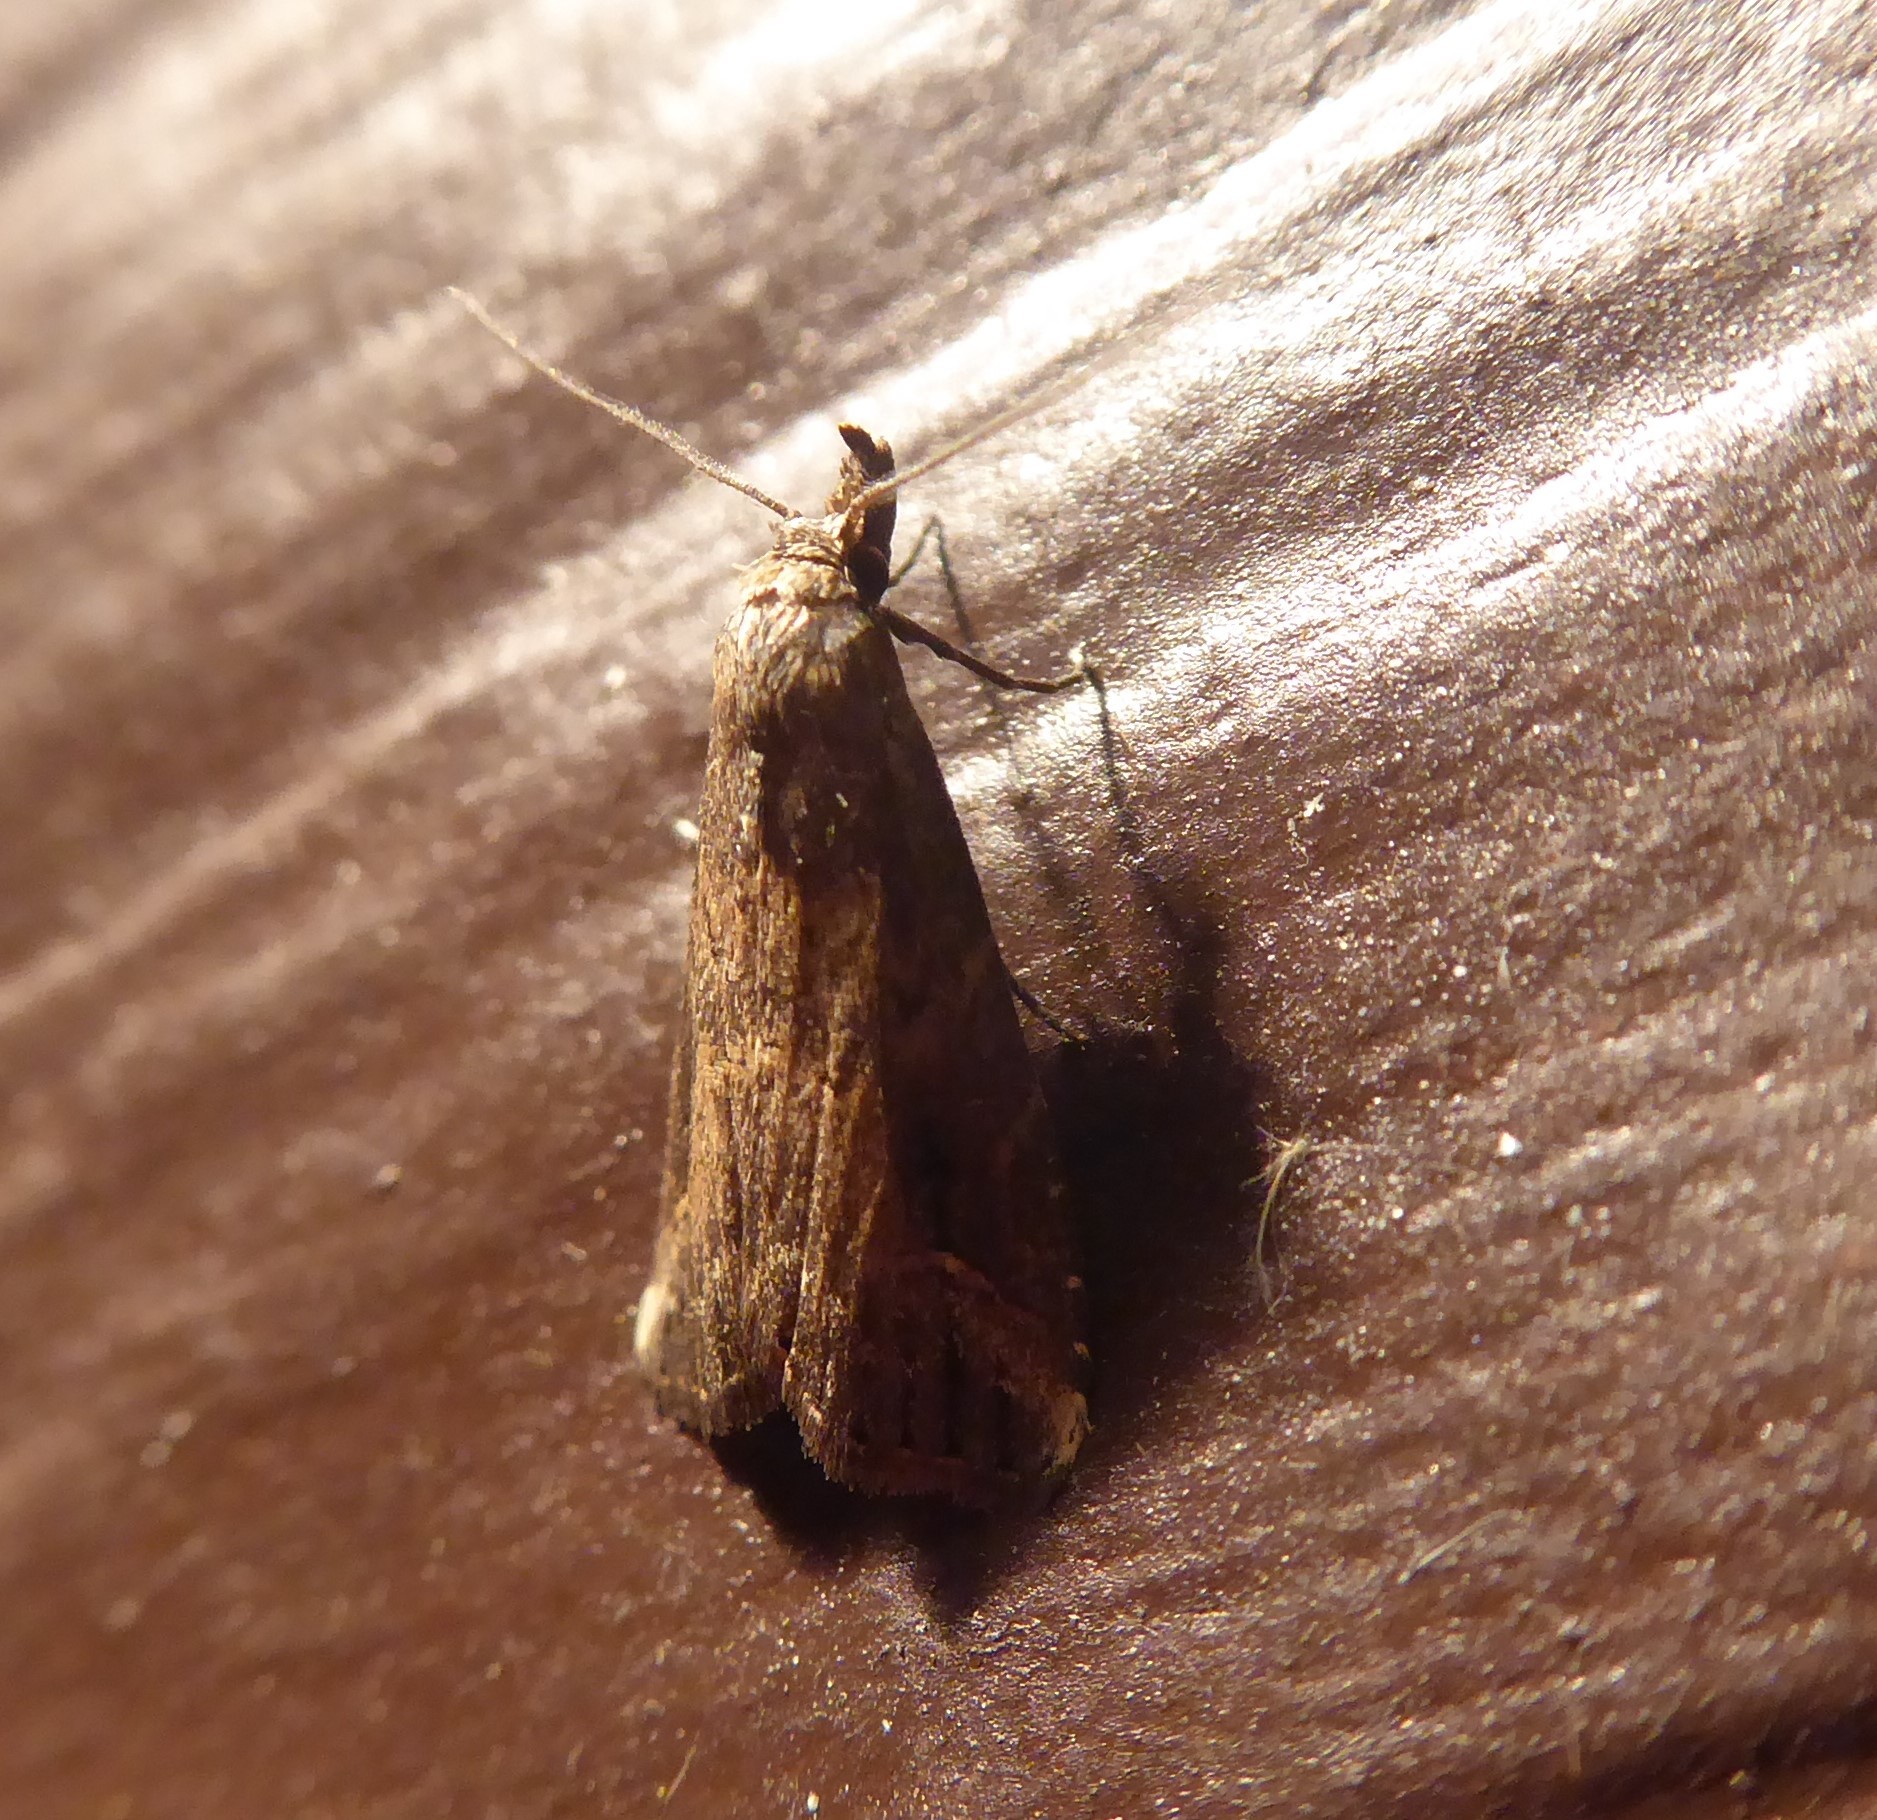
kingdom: Animalia
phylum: Arthropoda
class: Insecta
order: Lepidoptera
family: Erebidae
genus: Schrankia
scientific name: Schrankia costaestrigalis
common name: Pinion-streaked snout
